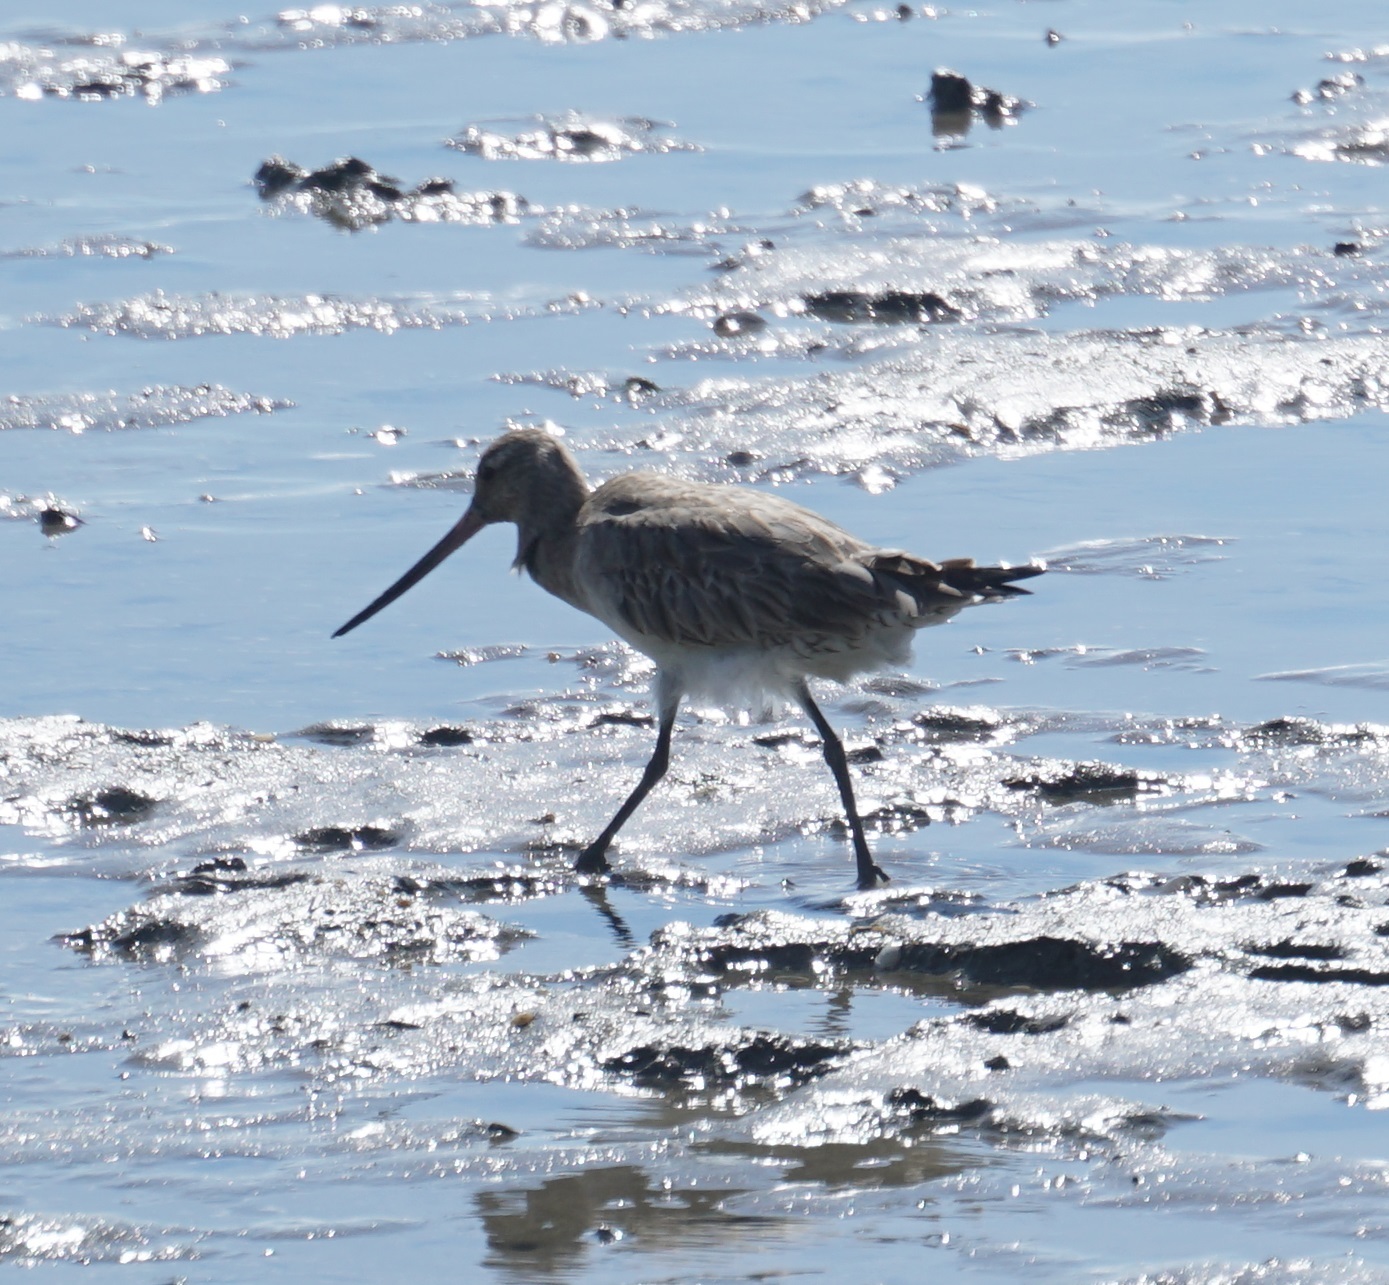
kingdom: Animalia
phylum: Chordata
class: Aves
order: Charadriiformes
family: Scolopacidae
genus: Limosa
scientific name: Limosa lapponica
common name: Bar-tailed godwit
